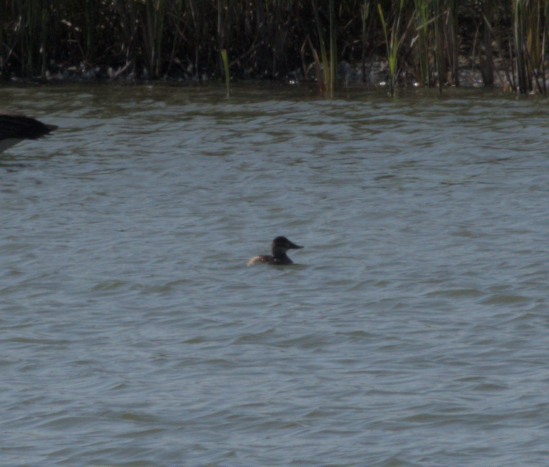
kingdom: Animalia
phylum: Chordata
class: Aves
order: Anseriformes
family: Anatidae
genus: Oxyura
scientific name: Oxyura jamaicensis
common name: Ruddy duck
